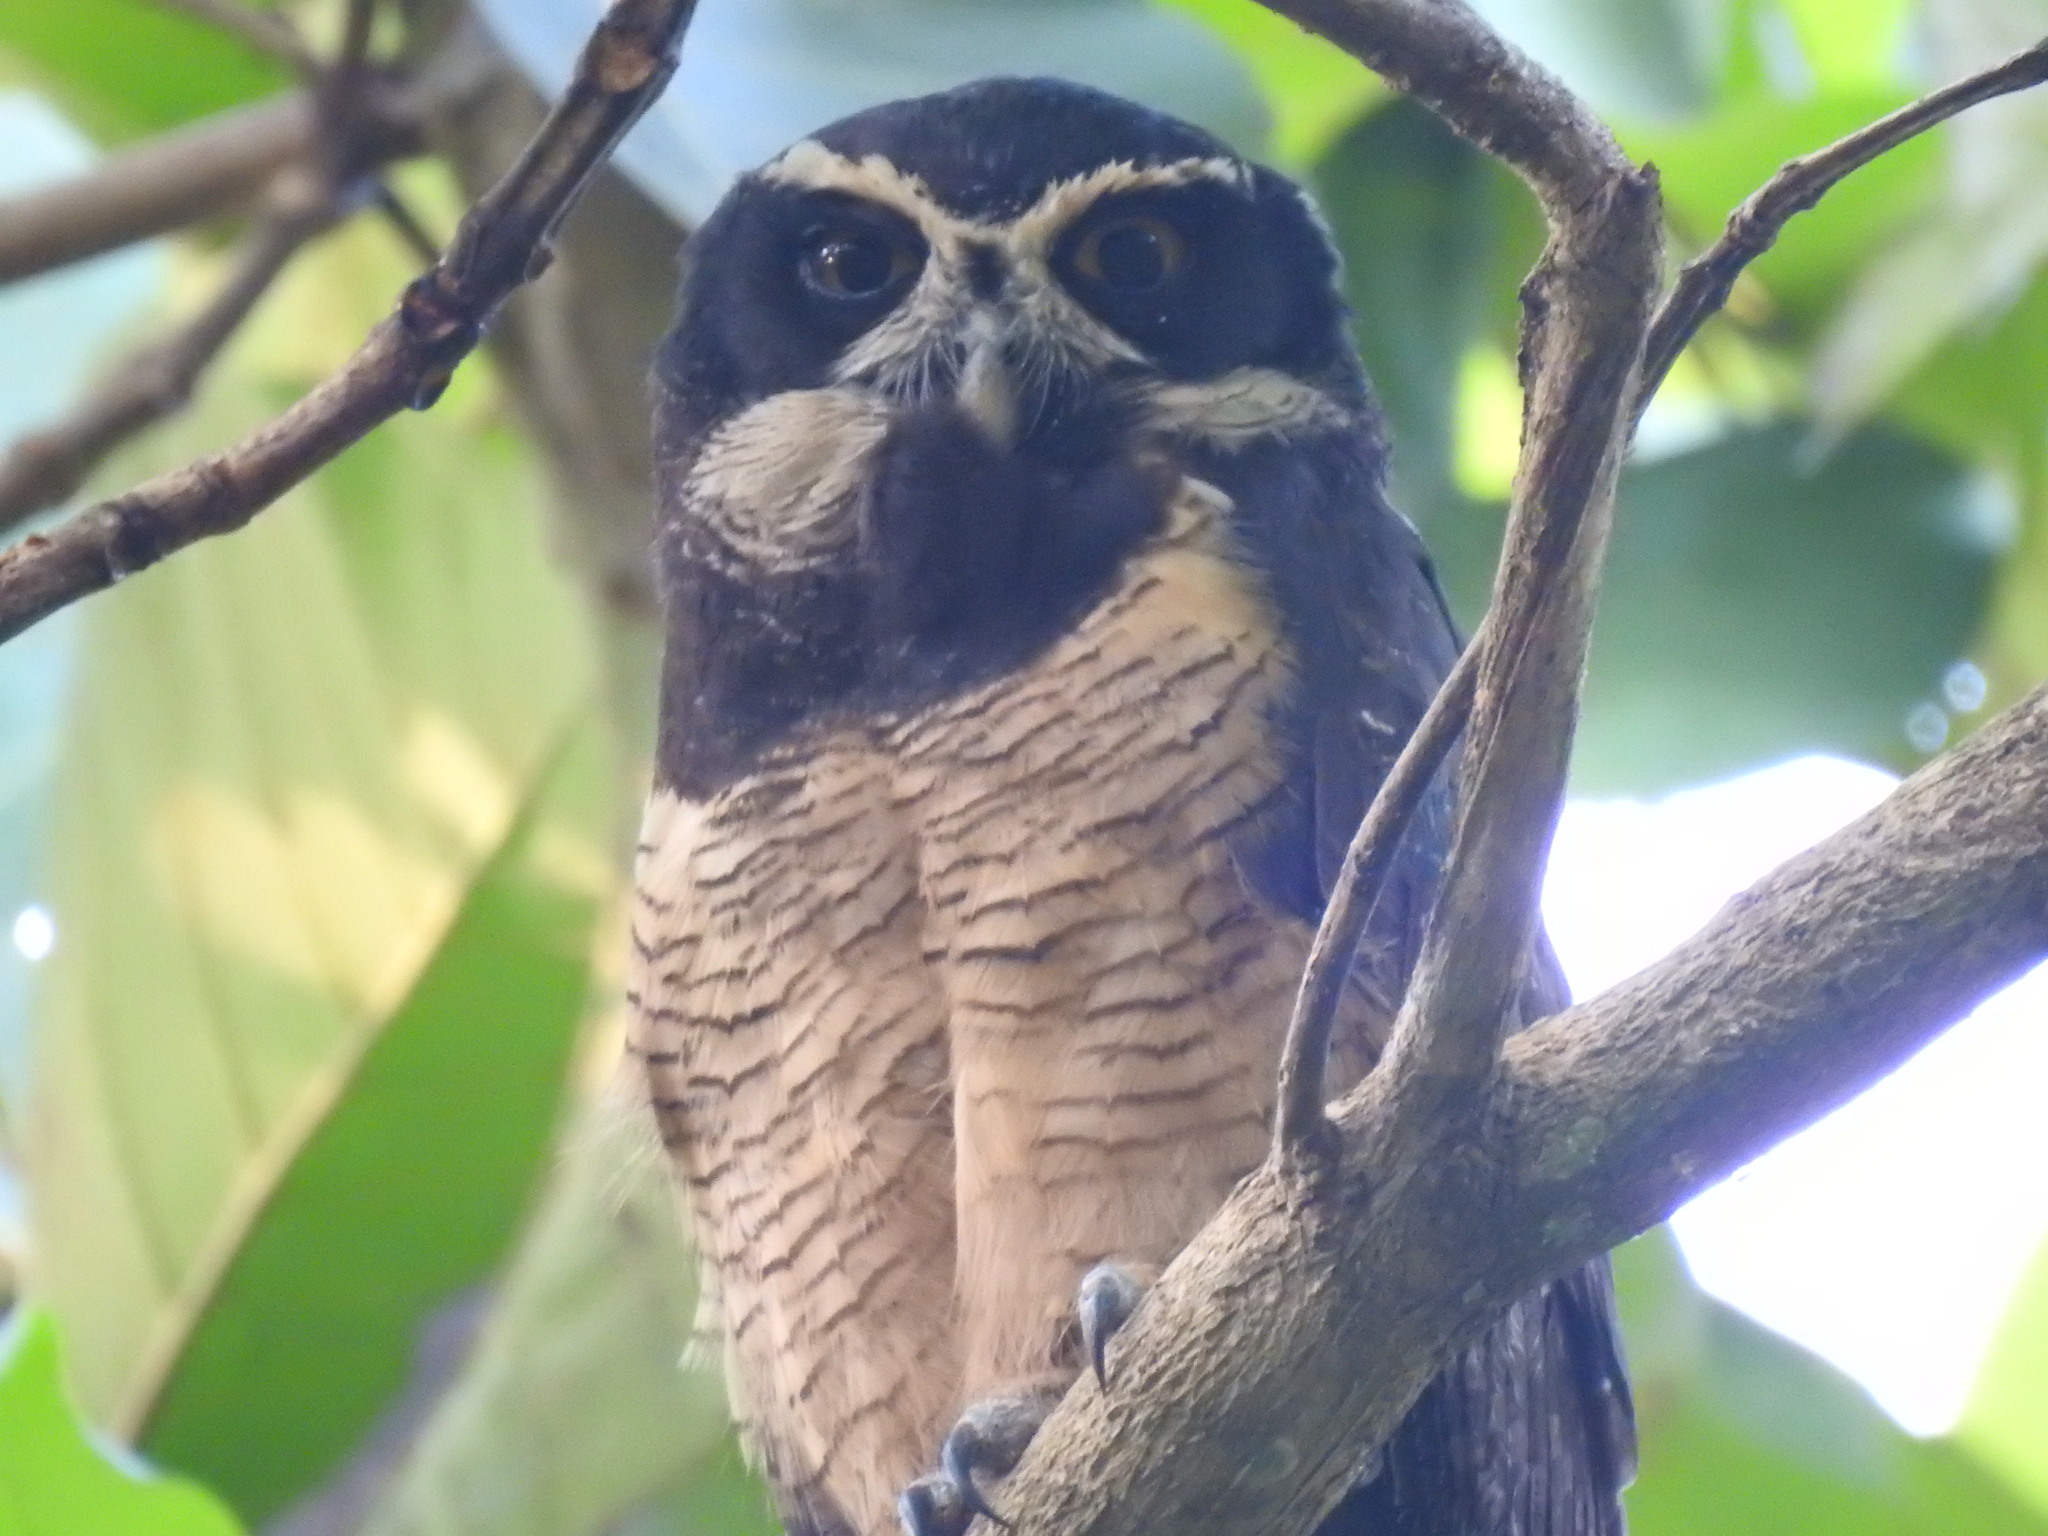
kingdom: Animalia
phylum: Chordata
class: Aves
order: Strigiformes
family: Strigidae
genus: Pulsatrix
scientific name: Pulsatrix perspicillata
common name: Spectacled owl
